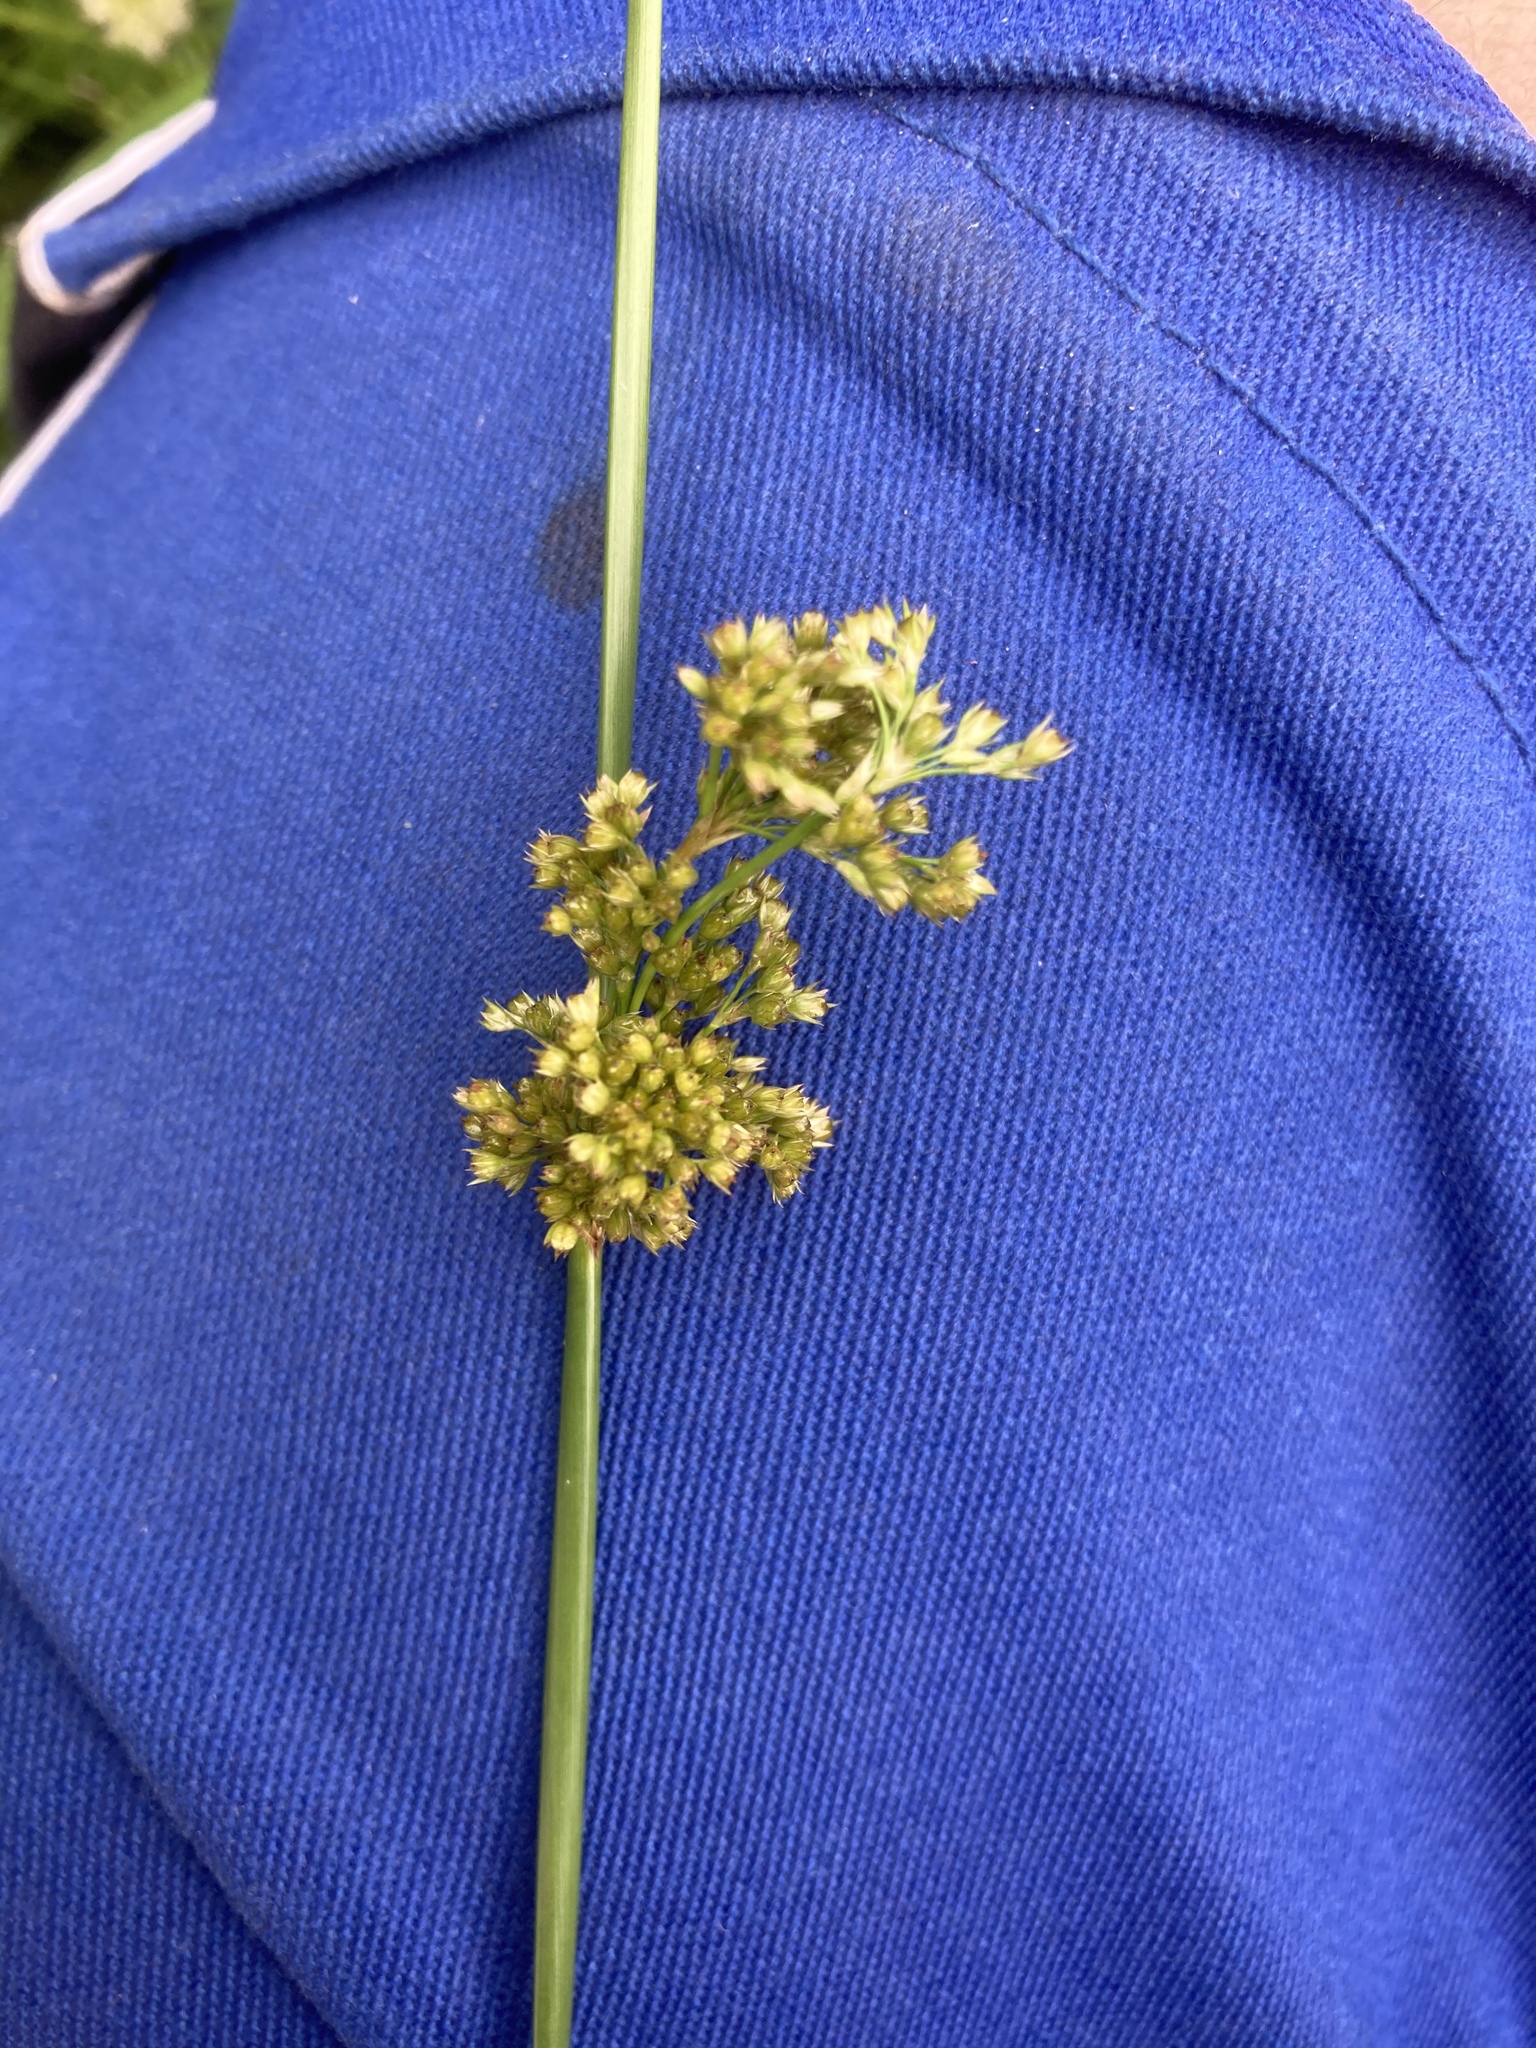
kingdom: Plantae
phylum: Tracheophyta
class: Liliopsida
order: Poales
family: Juncaceae
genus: Juncus
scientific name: Juncus effusus
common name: Soft rush
